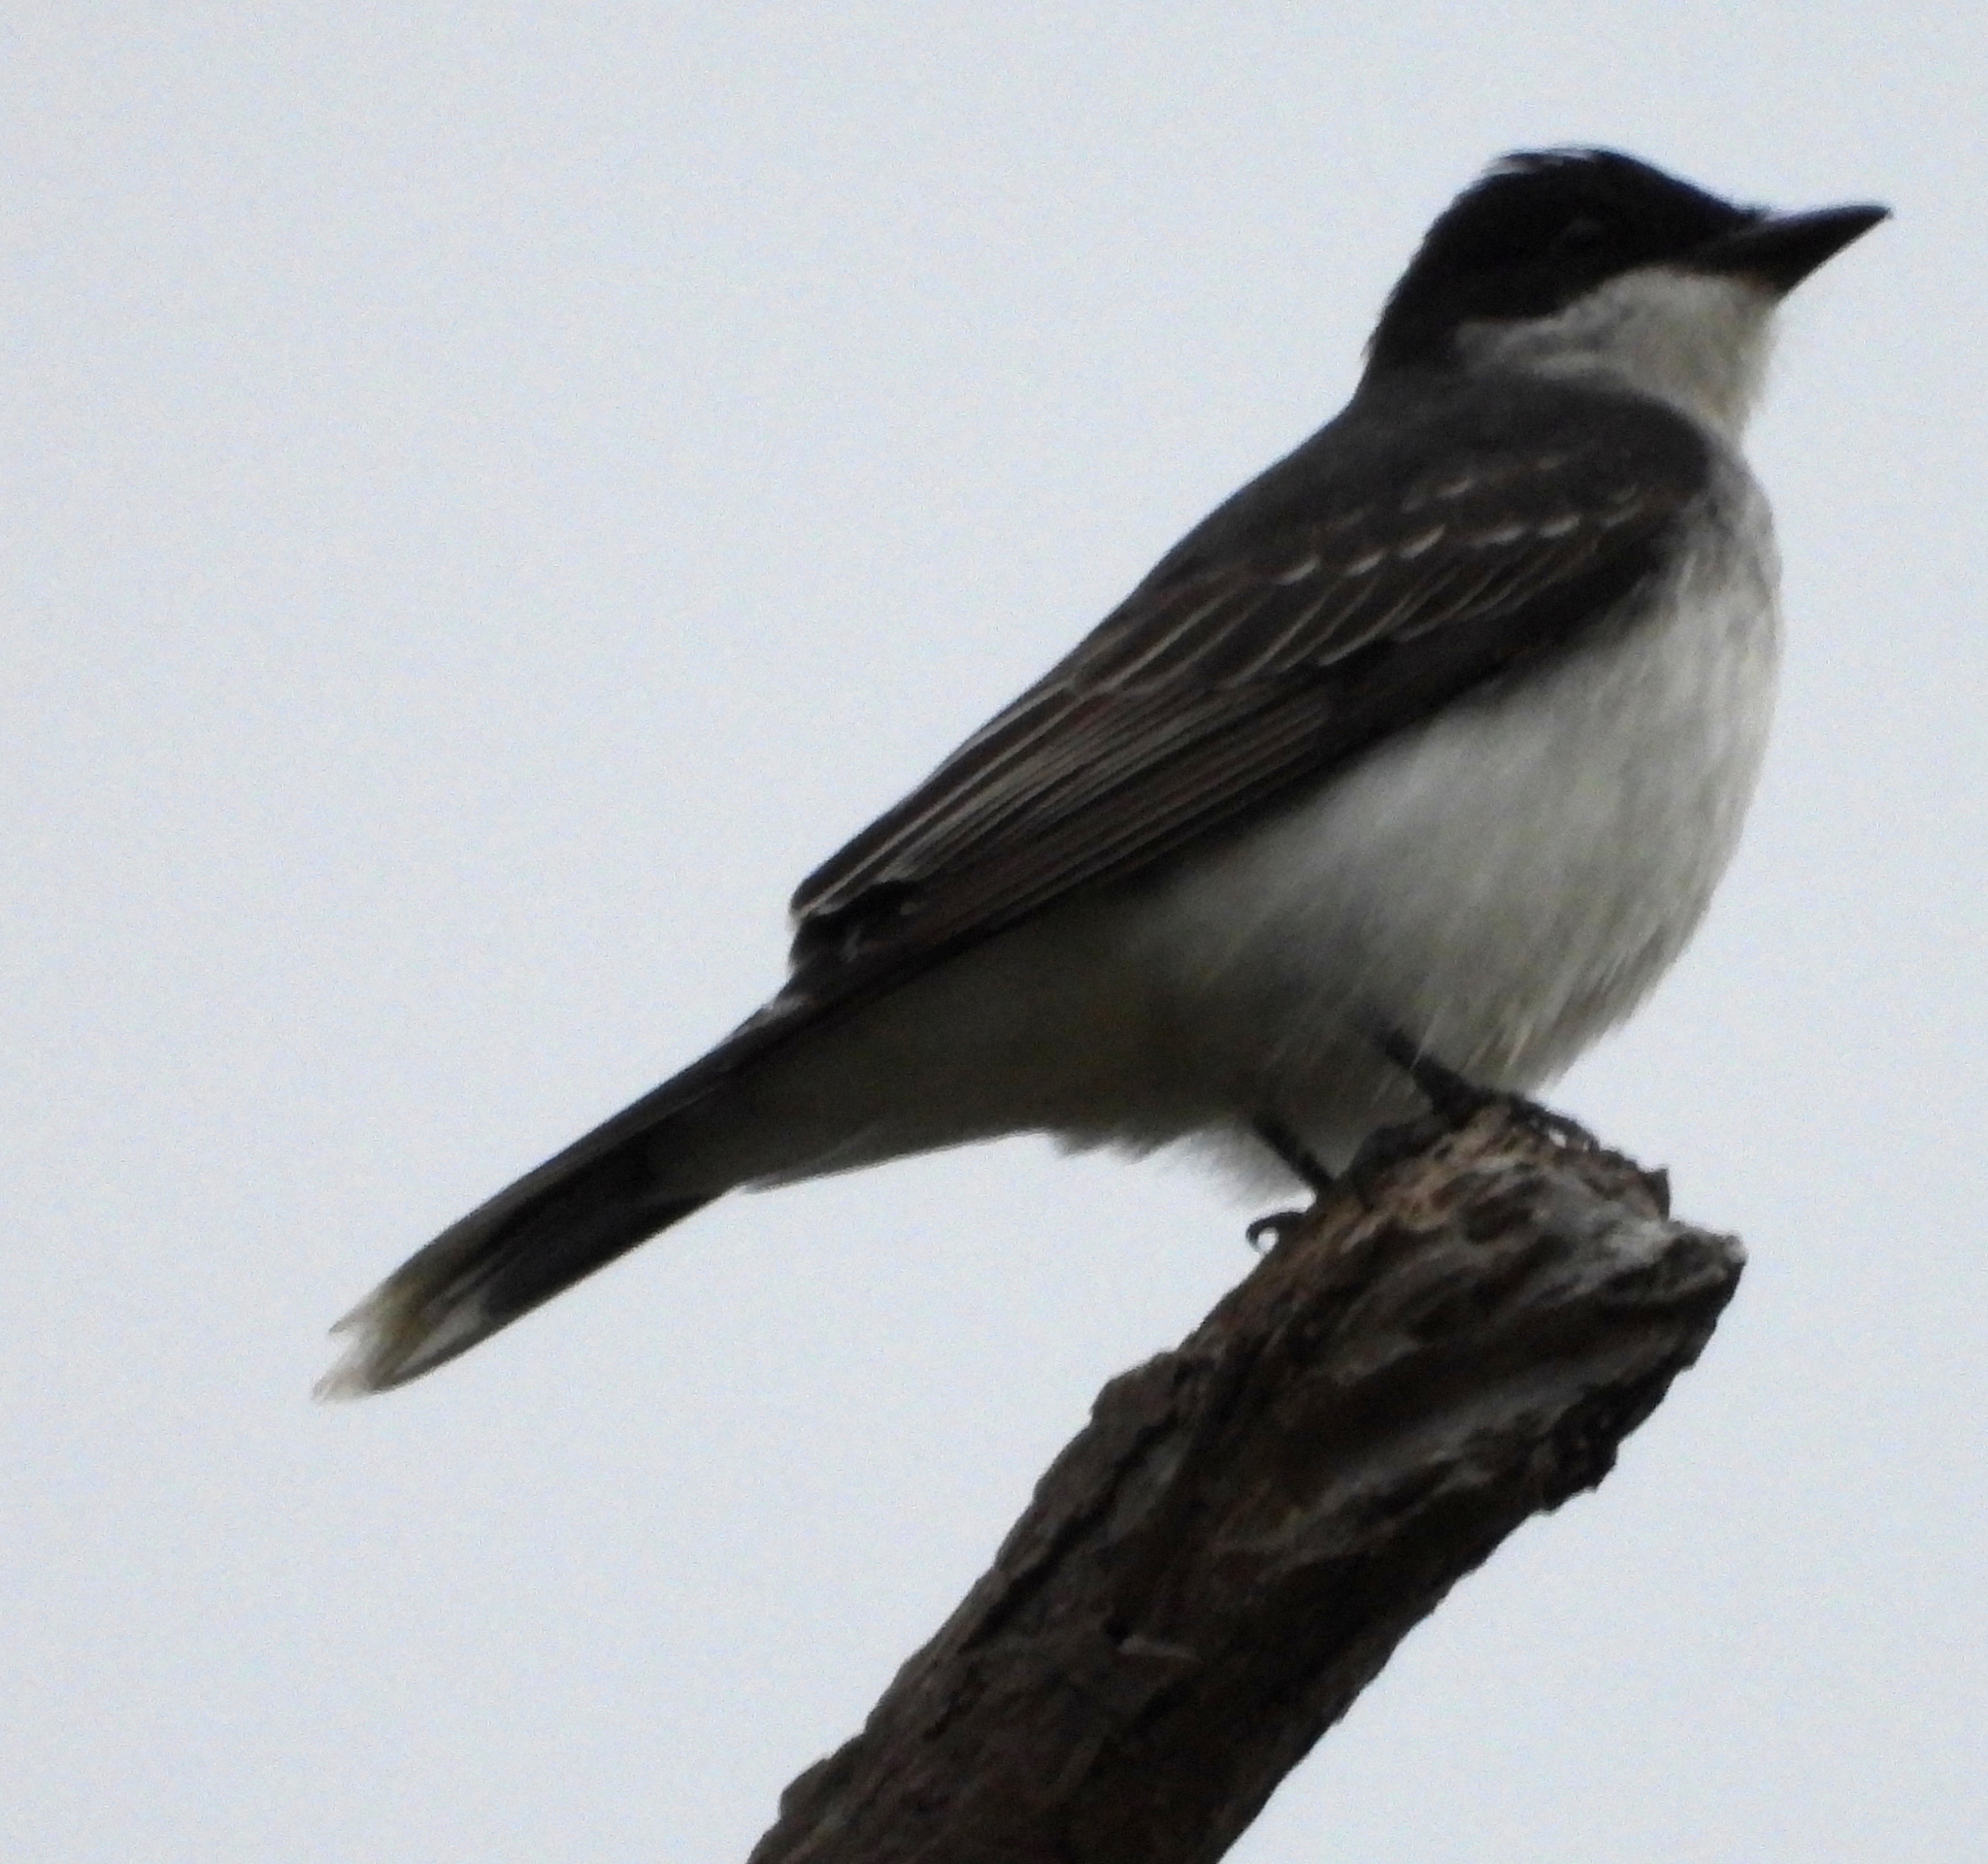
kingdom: Animalia
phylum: Chordata
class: Aves
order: Passeriformes
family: Tyrannidae
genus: Tyrannus
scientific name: Tyrannus tyrannus
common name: Eastern kingbird
